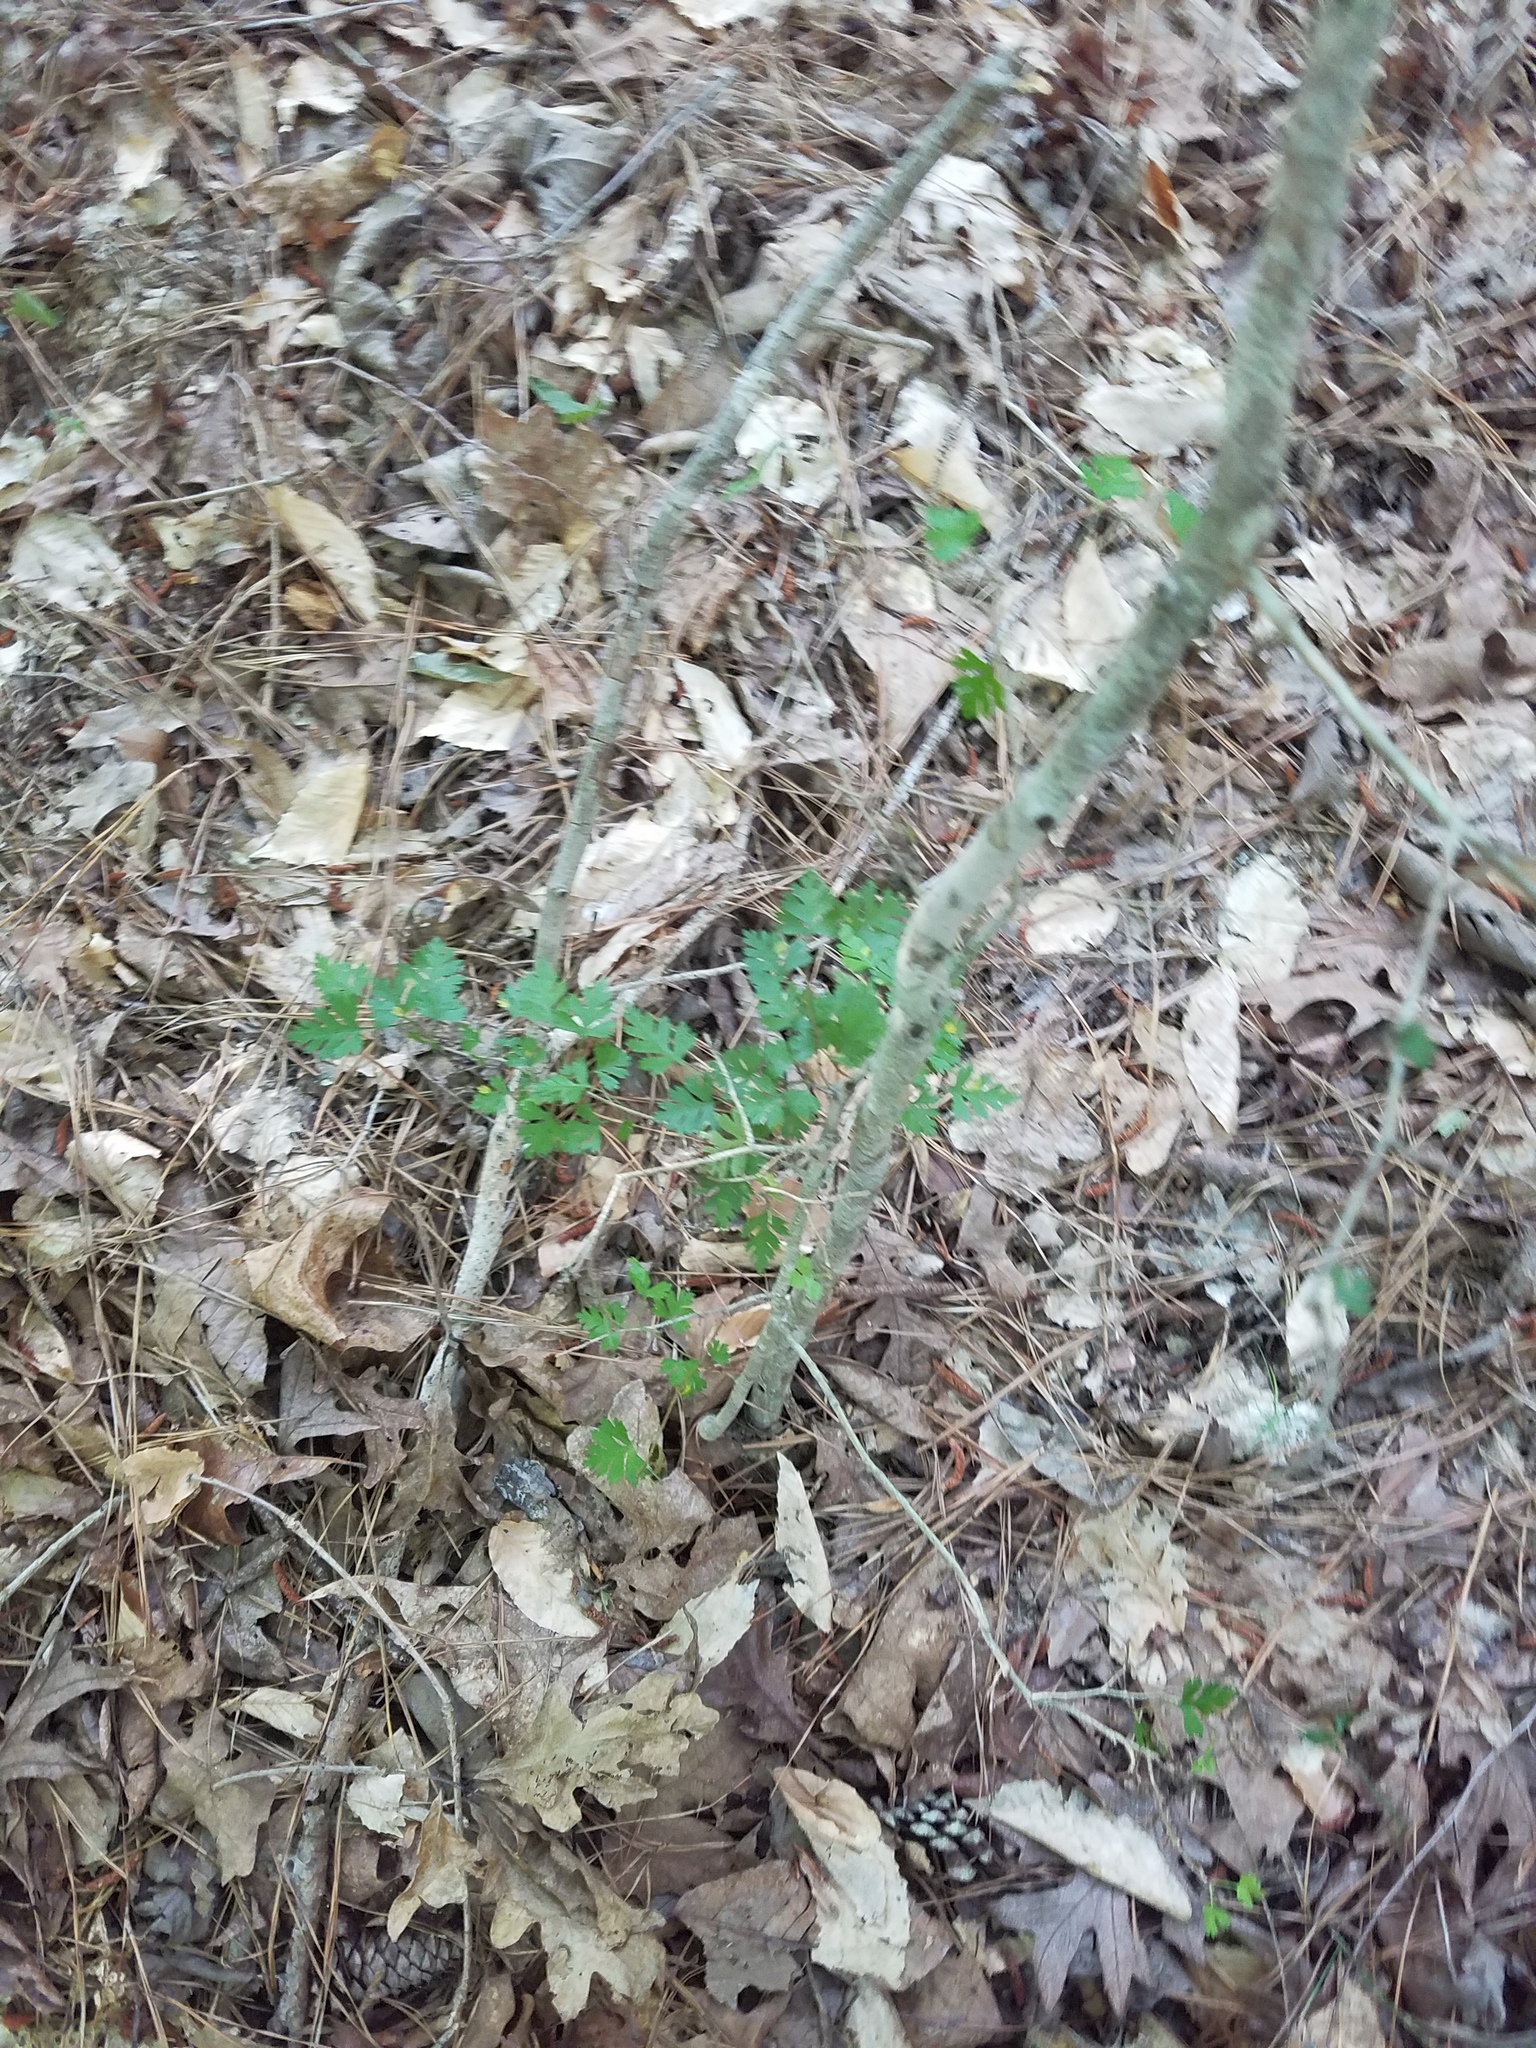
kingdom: Plantae
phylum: Tracheophyta
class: Magnoliopsida
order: Rosales
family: Rosaceae
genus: Crataegus
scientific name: Crataegus marshallii
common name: Parsley-hawthorn
